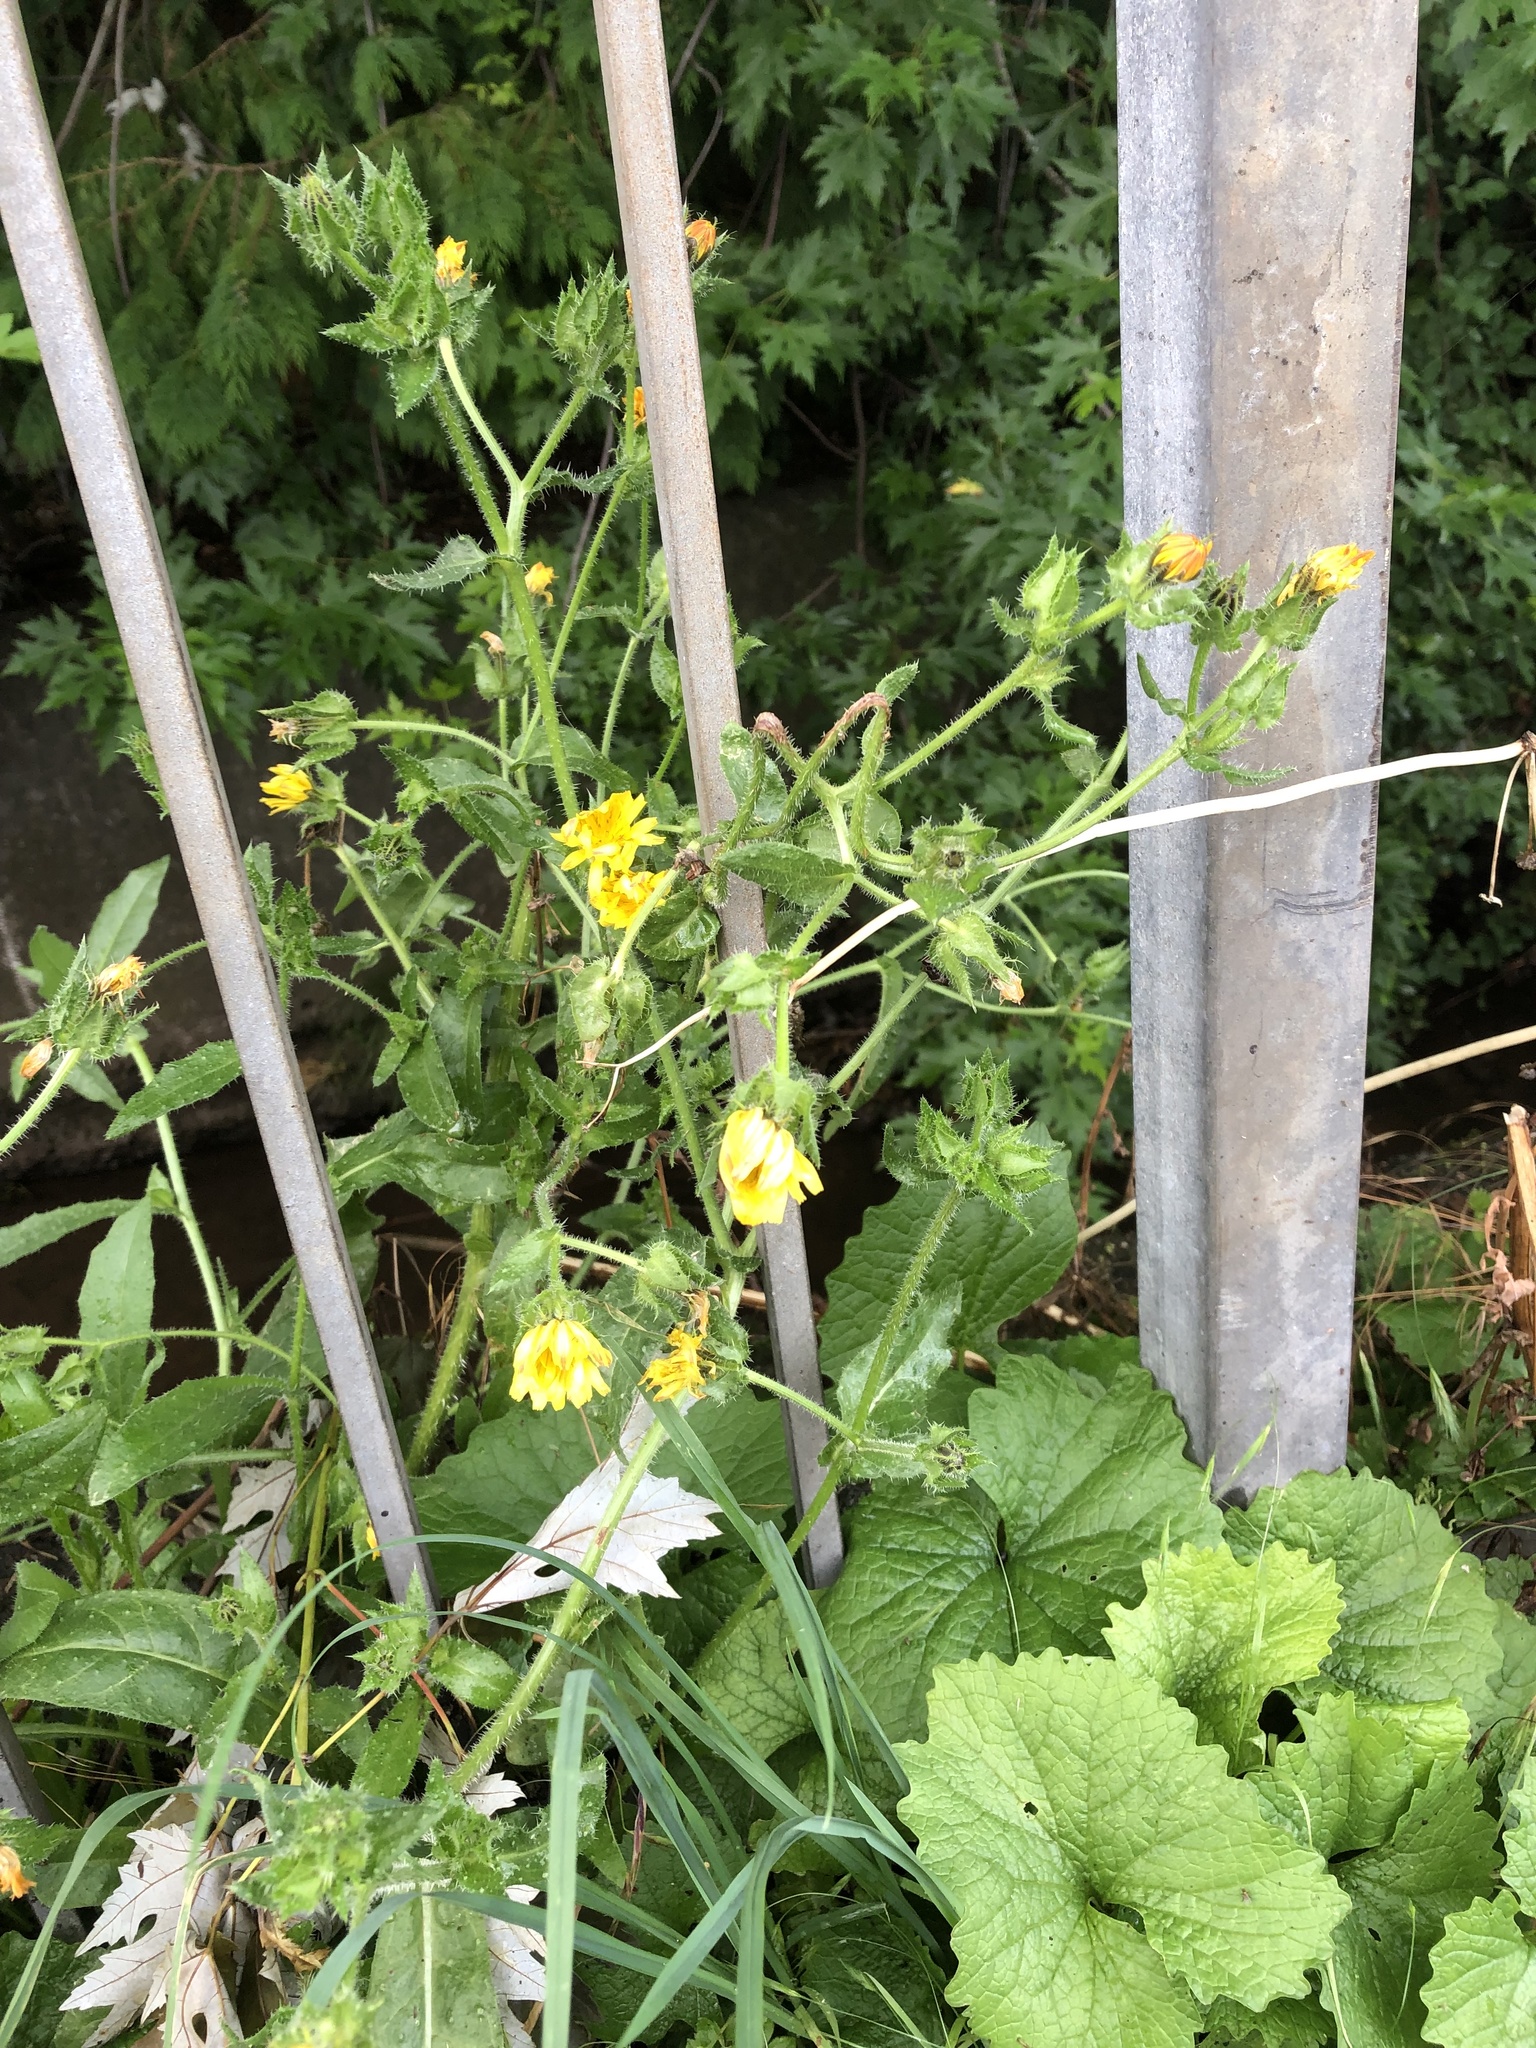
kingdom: Plantae
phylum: Tracheophyta
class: Magnoliopsida
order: Asterales
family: Asteraceae
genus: Helminthotheca
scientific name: Helminthotheca echioides
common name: Ox-tongue
